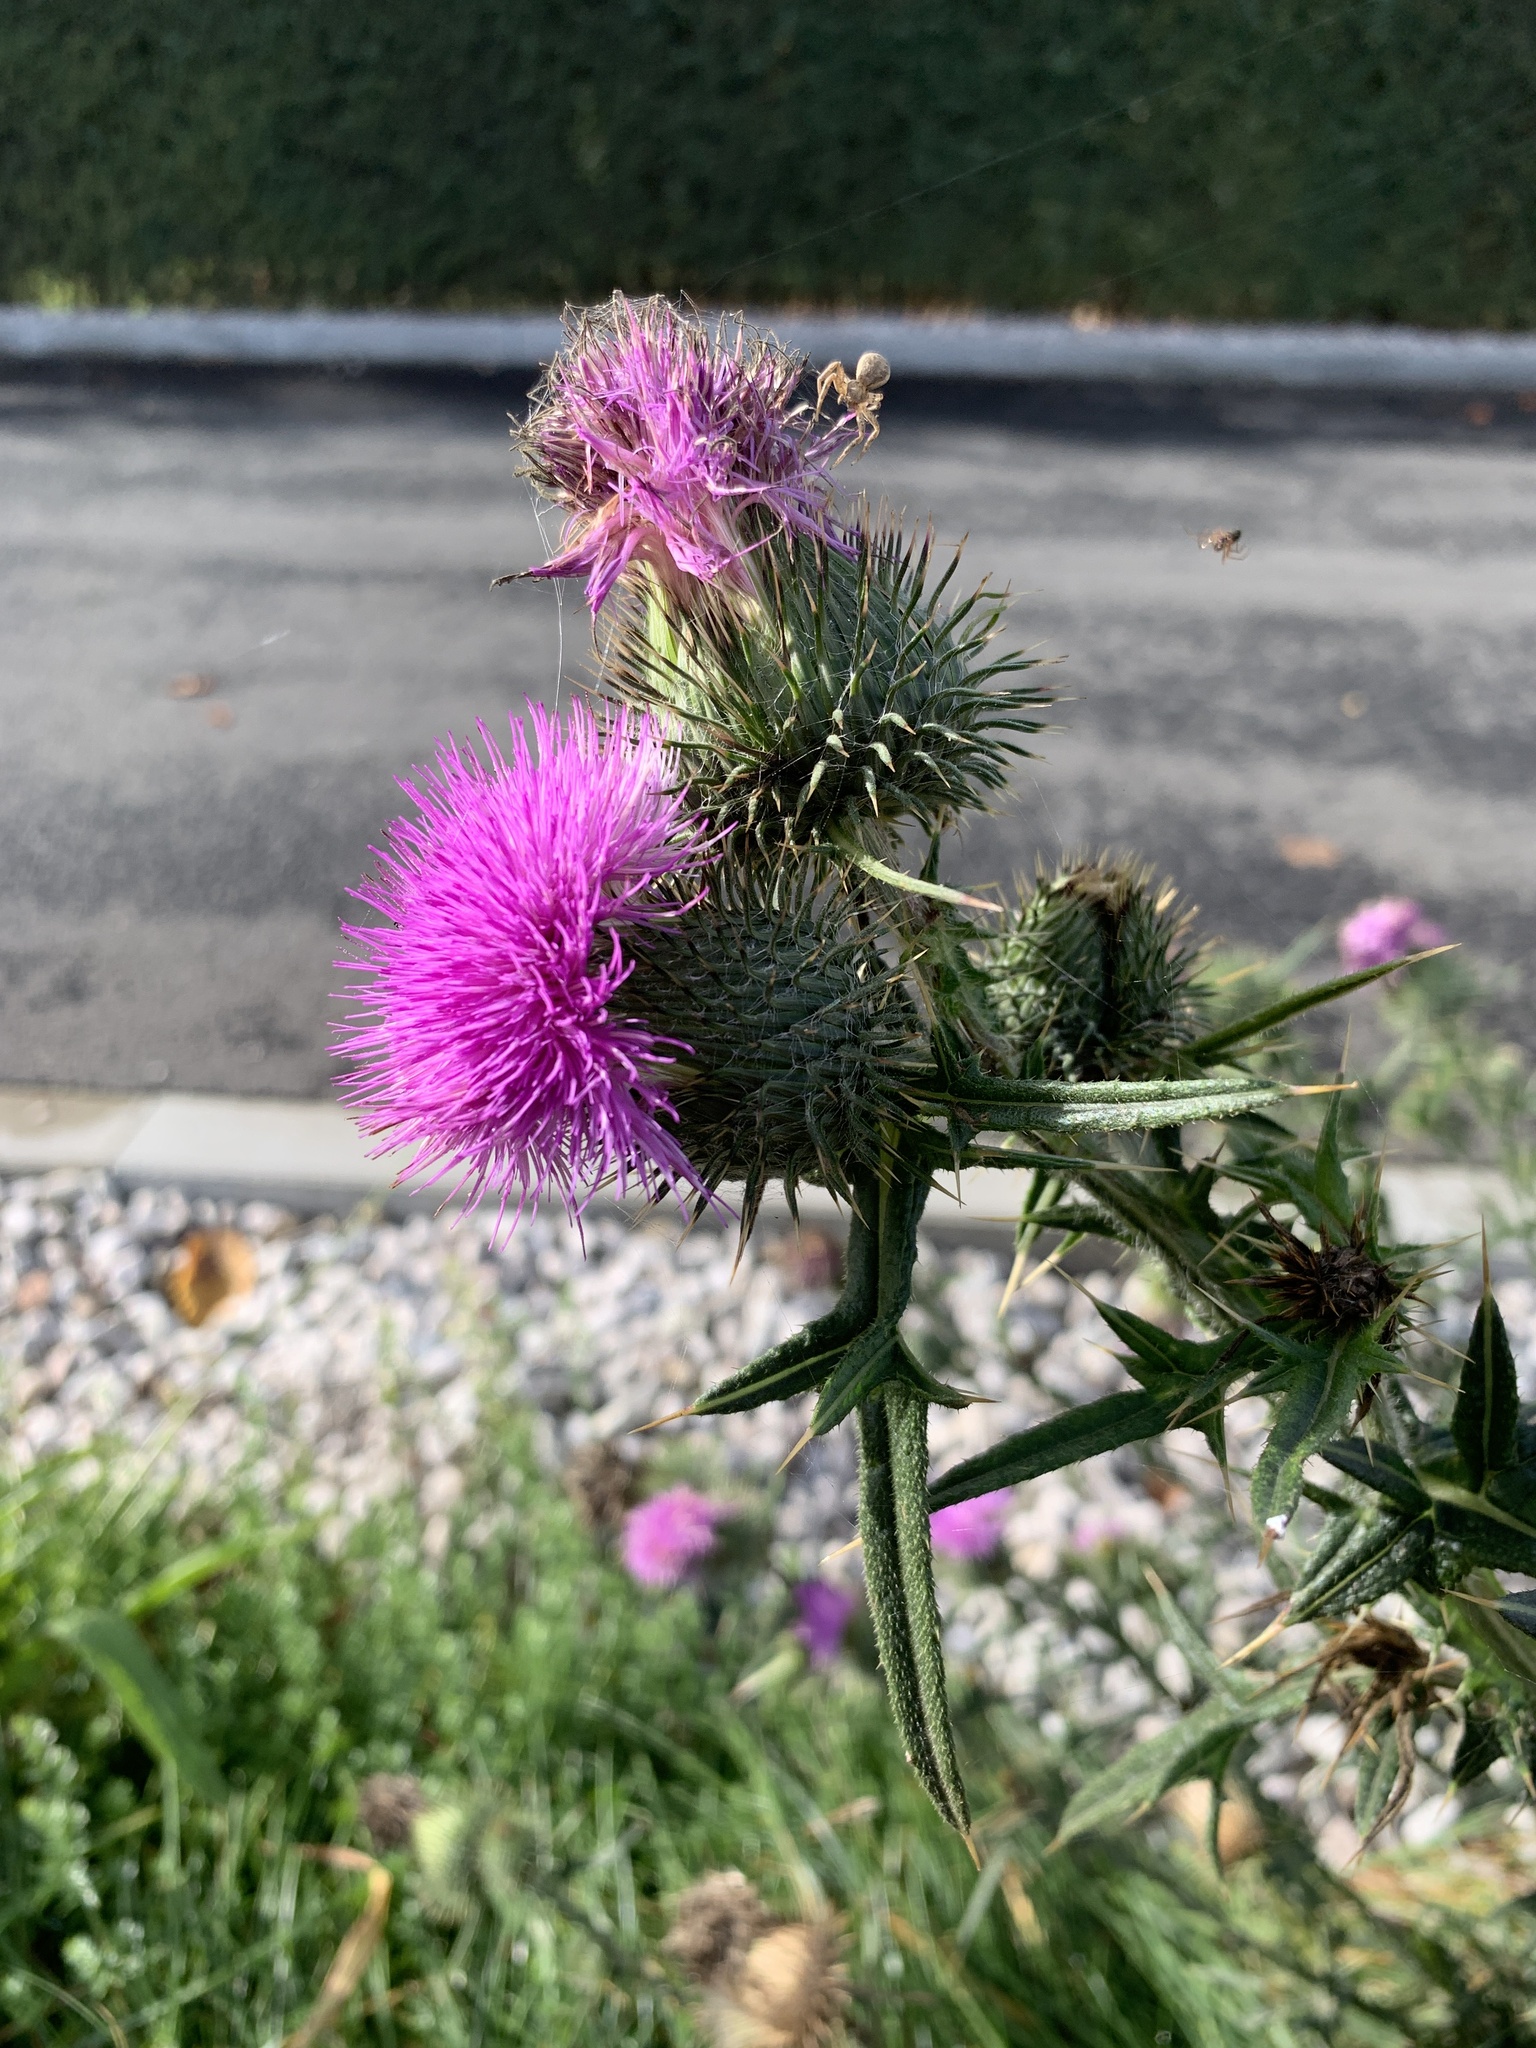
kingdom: Plantae
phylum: Tracheophyta
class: Magnoliopsida
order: Asterales
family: Asteraceae
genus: Cirsium
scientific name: Cirsium vulgare
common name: Bull thistle
